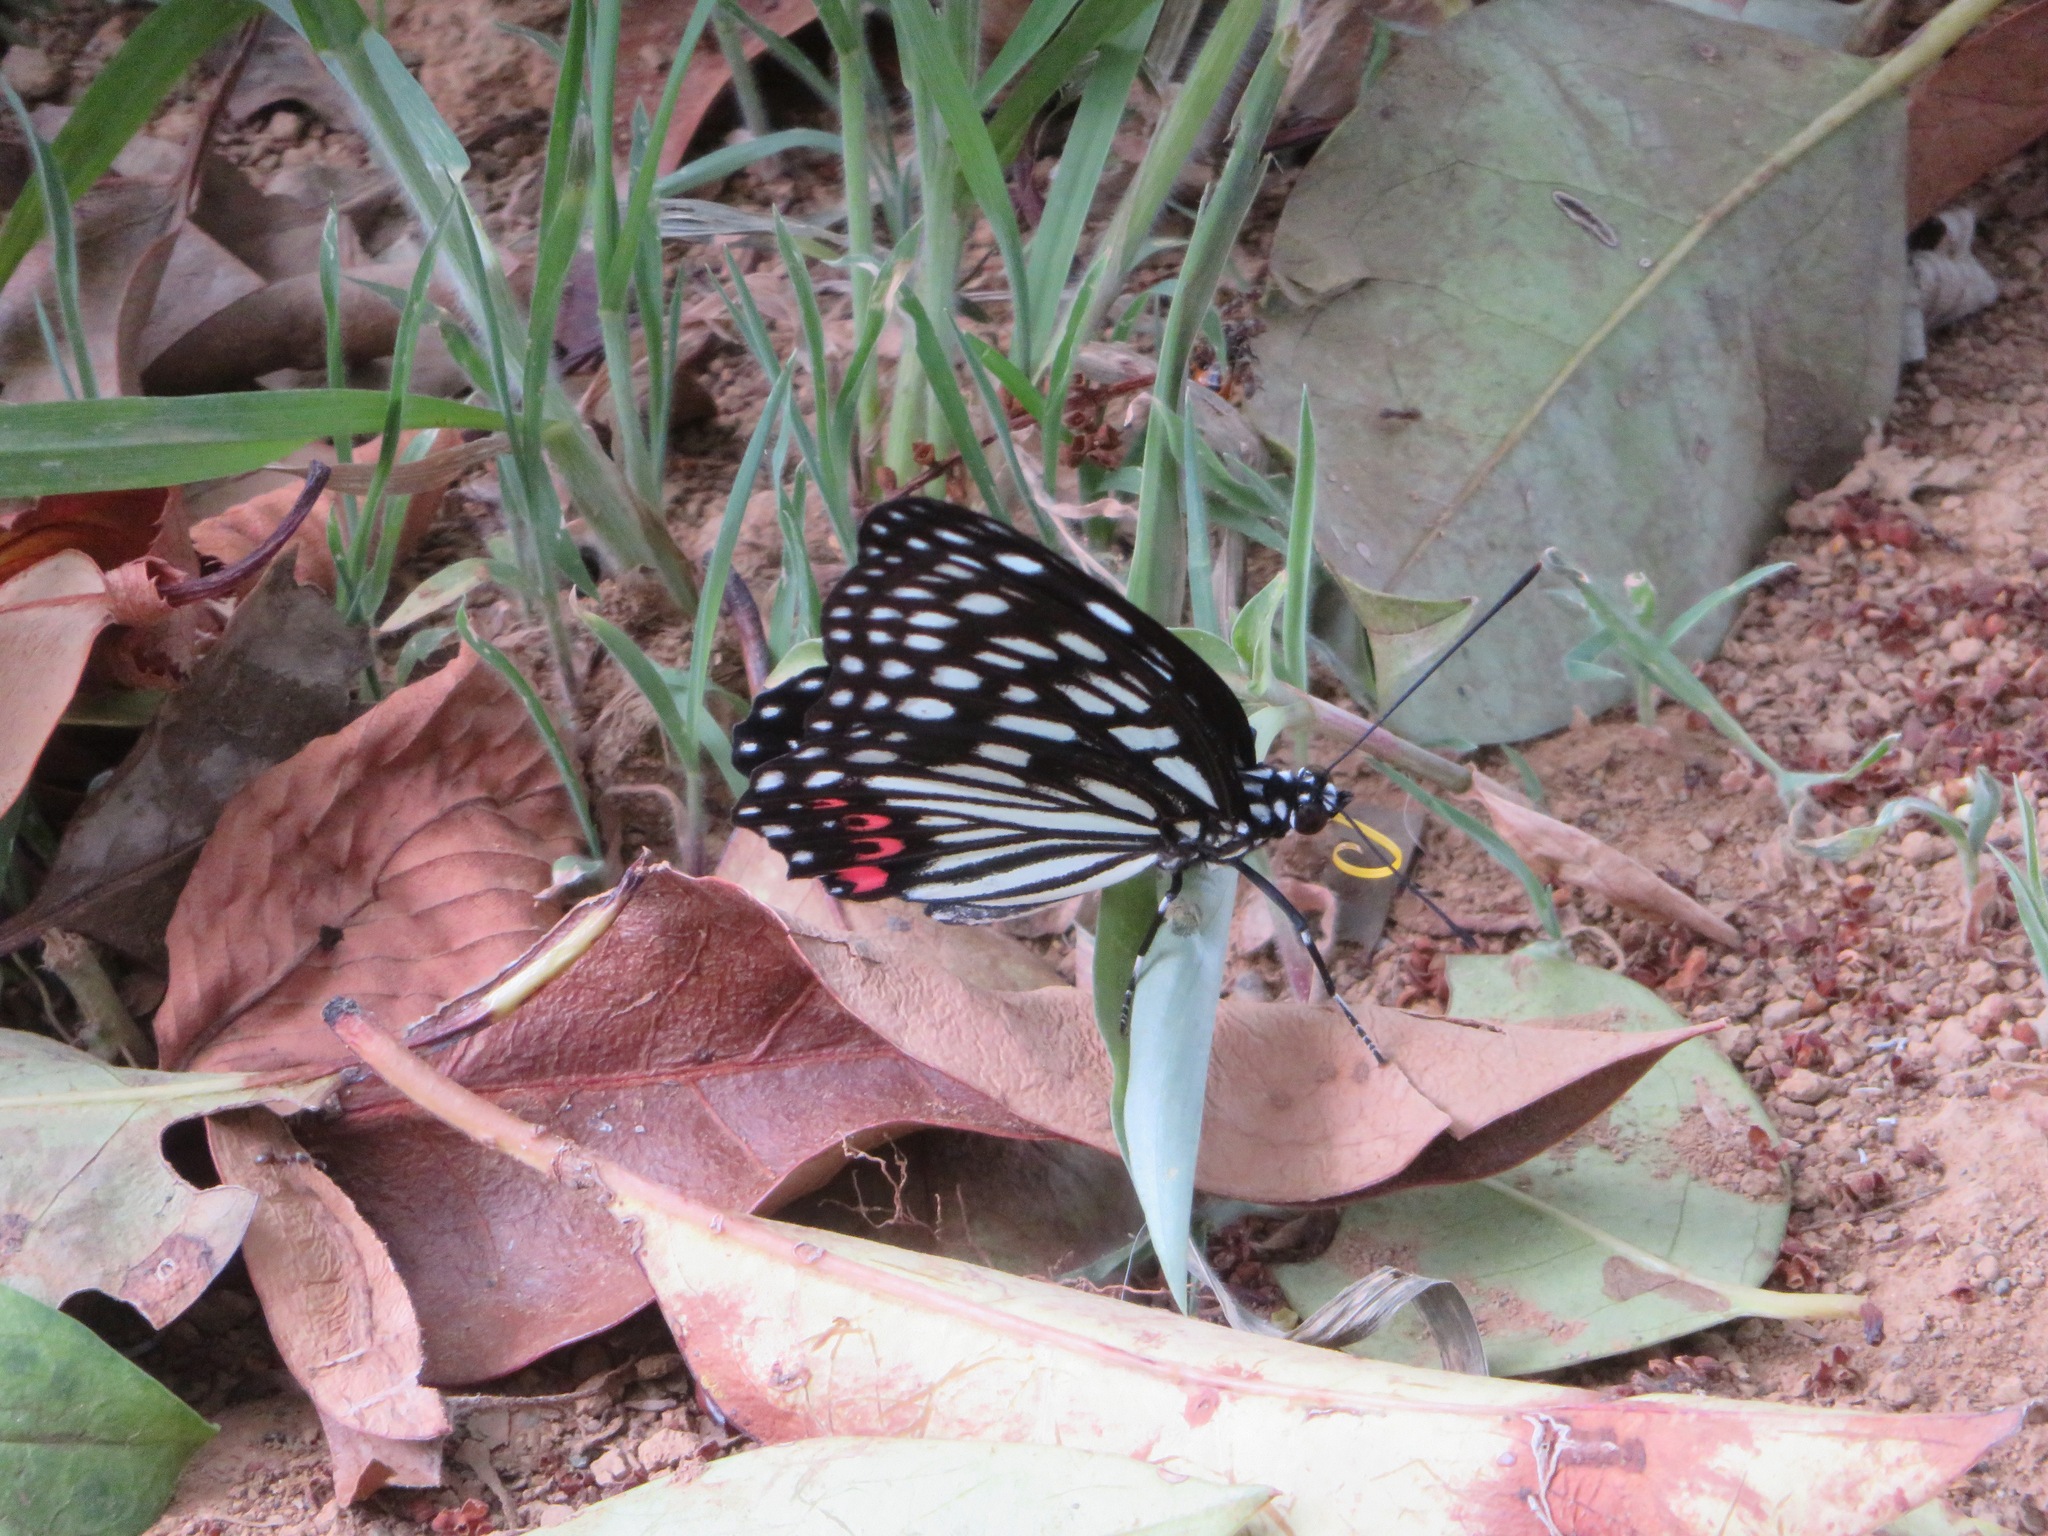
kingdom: Animalia
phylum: Arthropoda
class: Insecta
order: Lepidoptera
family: Nymphalidae
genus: Hestina
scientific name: Hestina assimilis
